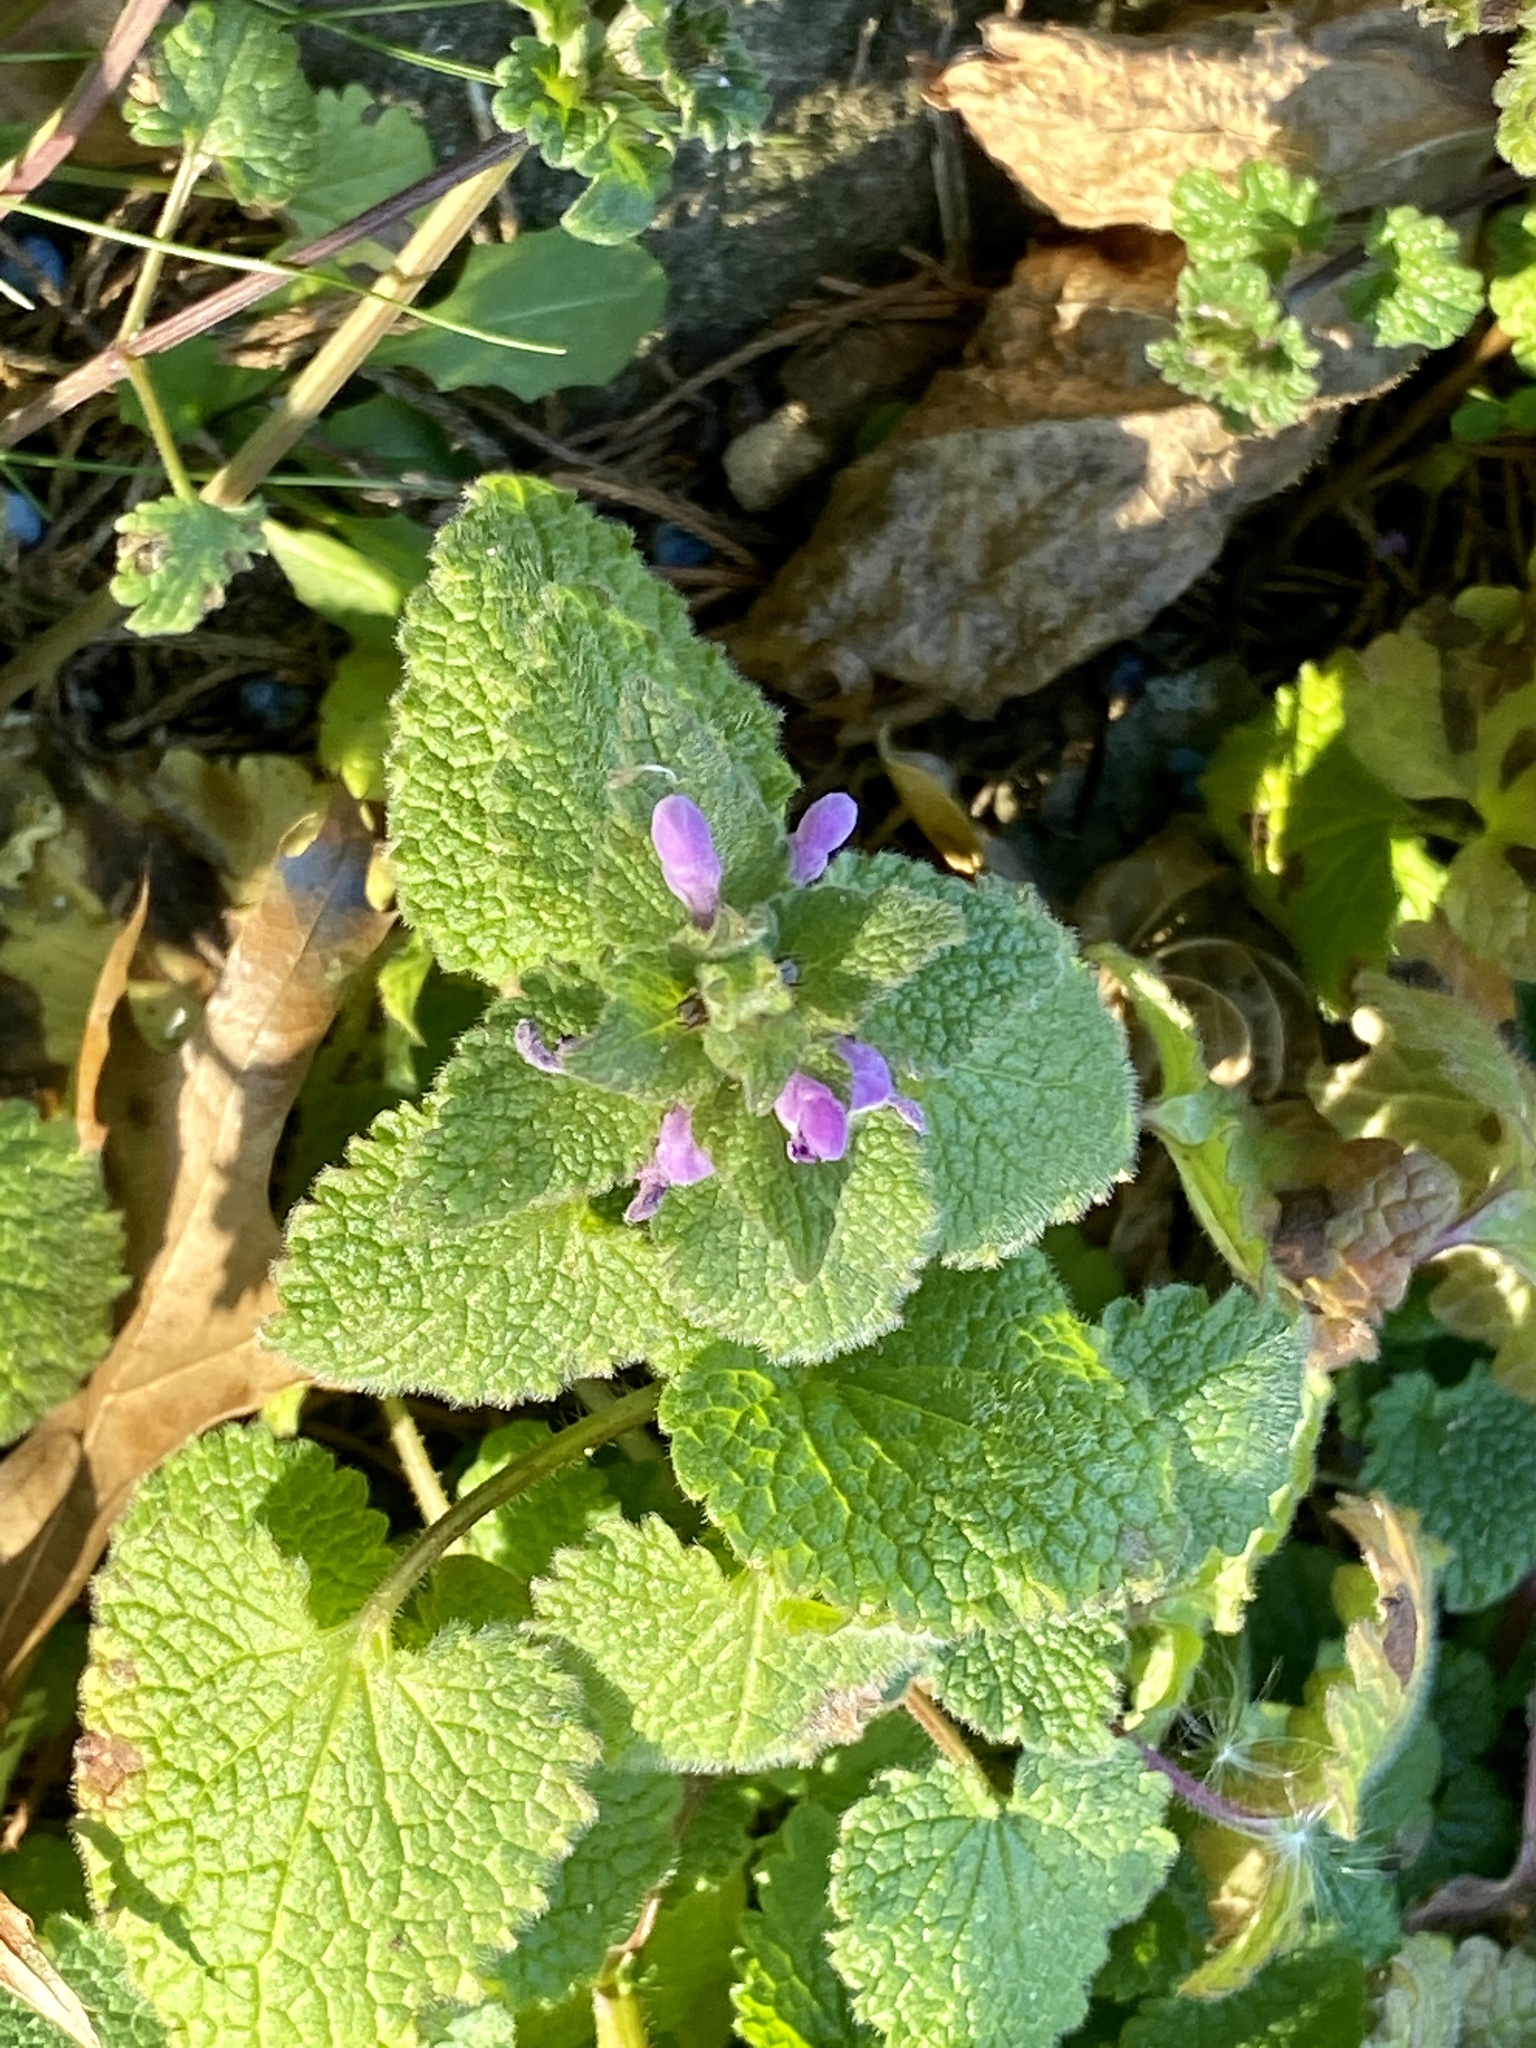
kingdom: Plantae
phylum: Tracheophyta
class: Magnoliopsida
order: Lamiales
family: Lamiaceae
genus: Lamium
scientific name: Lamium purpureum
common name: Red dead-nettle
